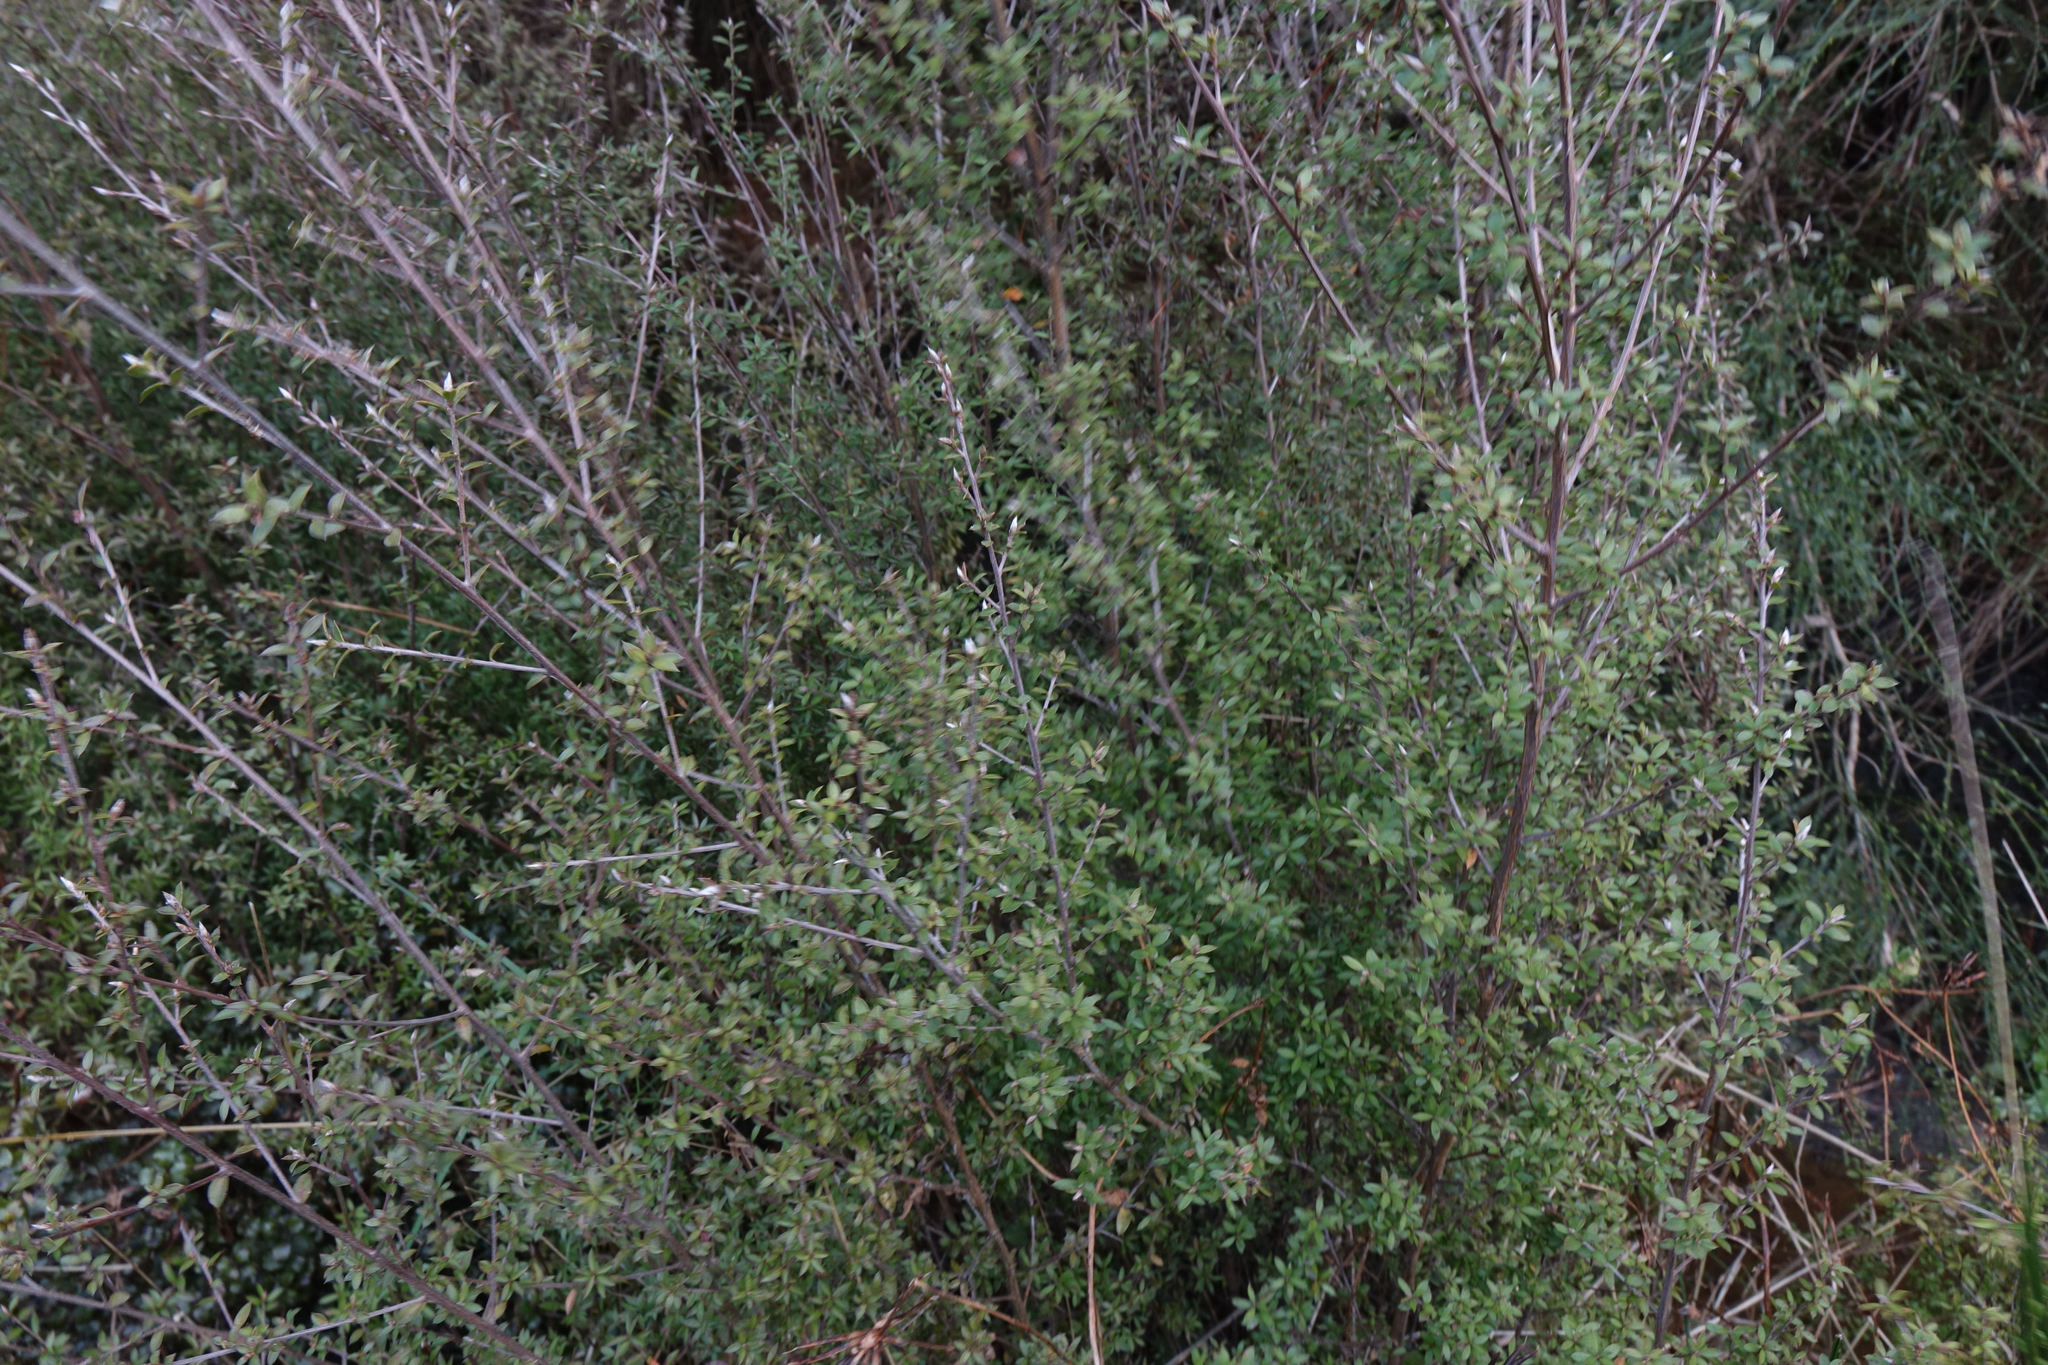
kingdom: Plantae
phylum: Tracheophyta
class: Magnoliopsida
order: Myrtales
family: Myrtaceae
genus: Leptospermum
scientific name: Leptospermum scoparium
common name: Broom tea-tree
